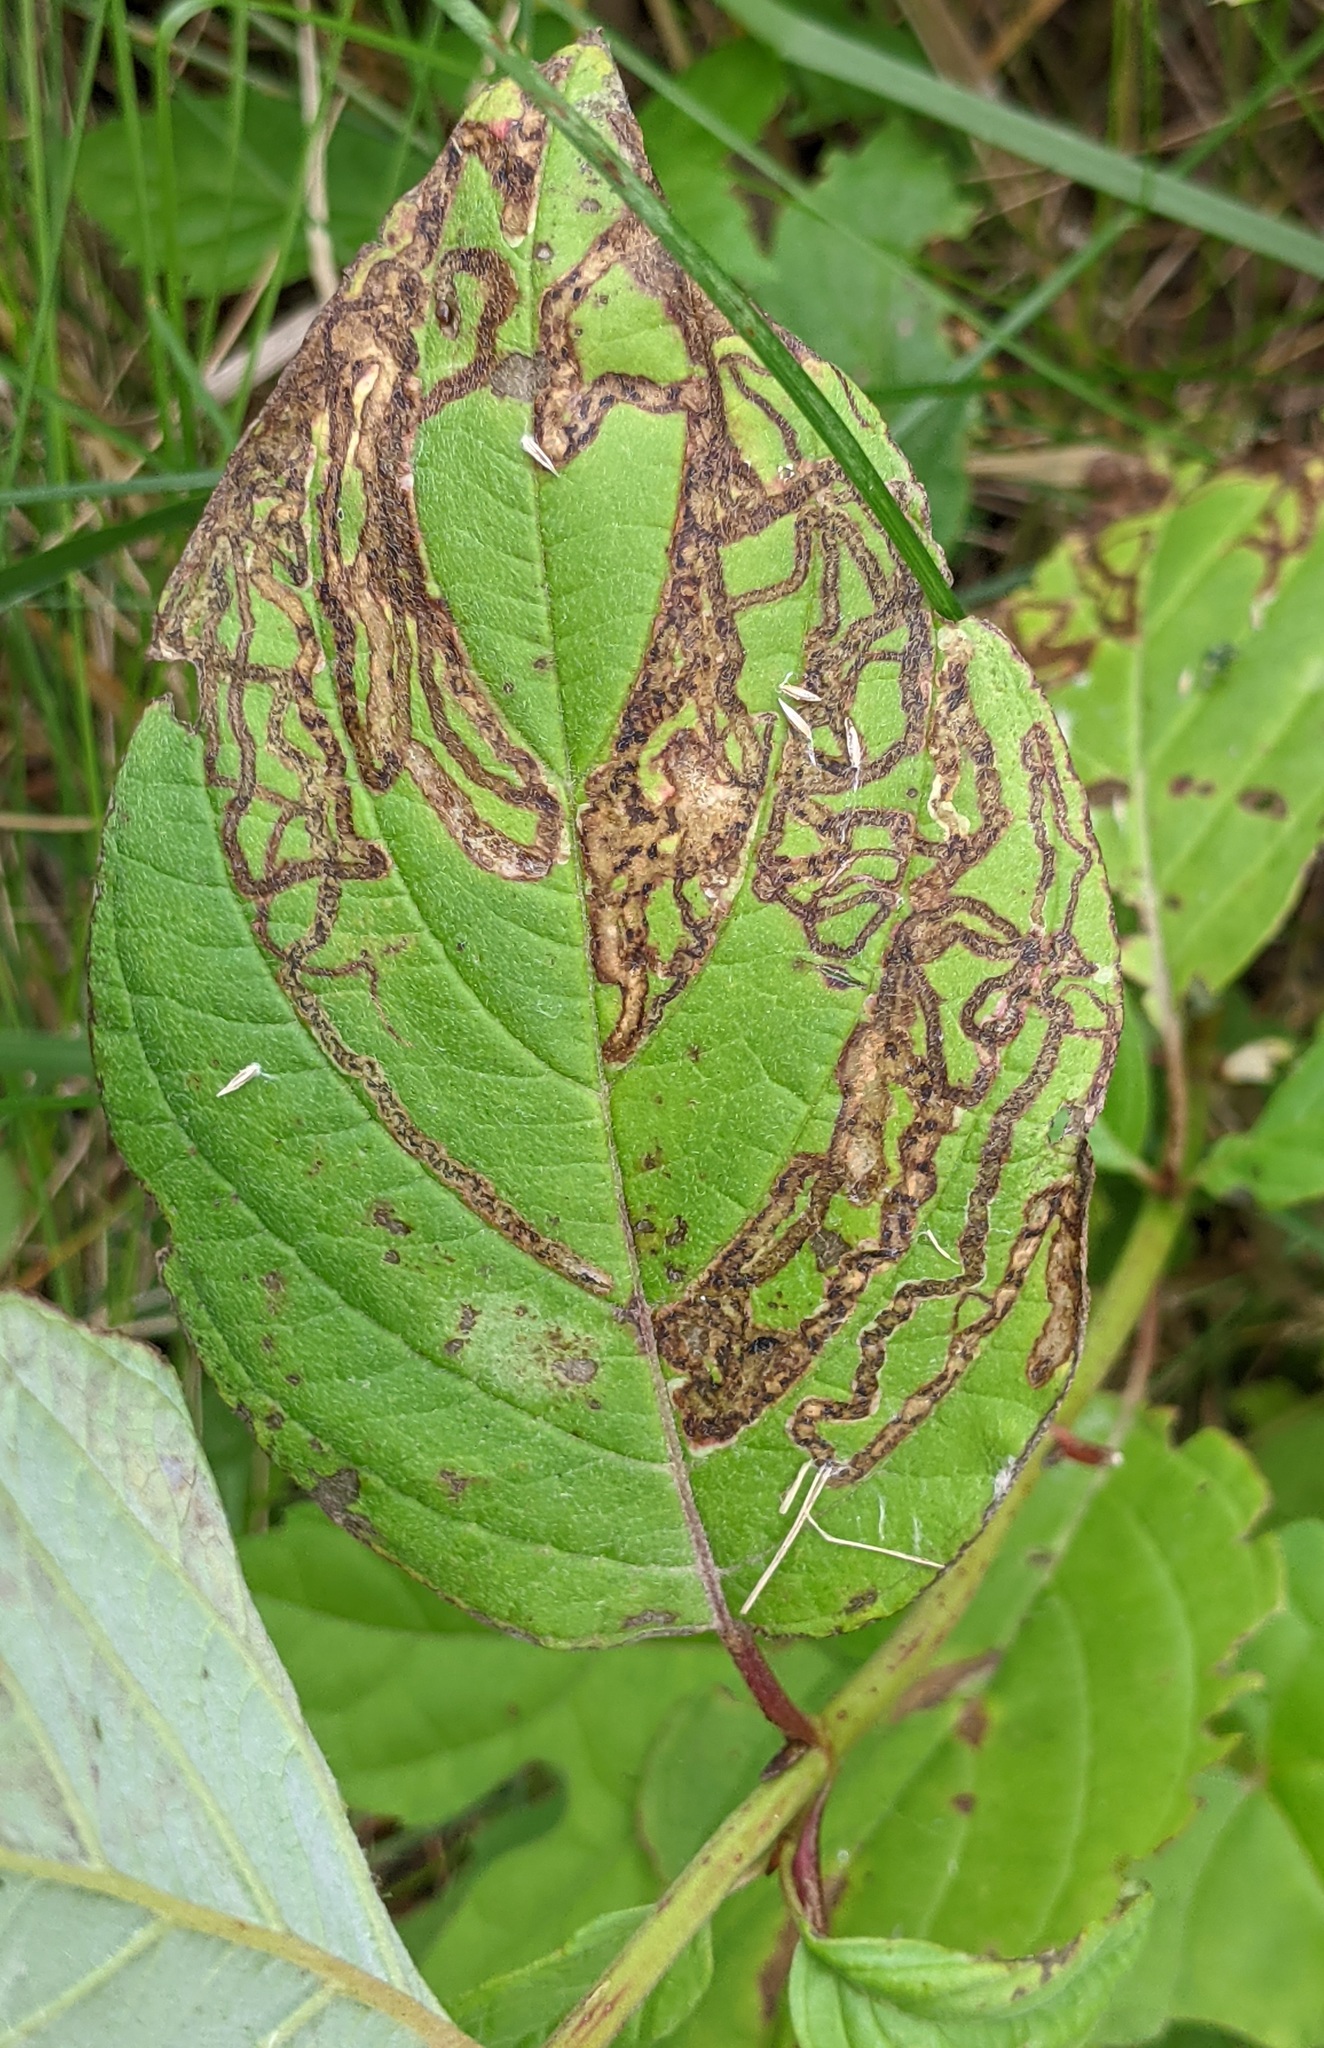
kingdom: Animalia
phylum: Arthropoda
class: Insecta
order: Diptera
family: Agromyzidae
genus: Phytomyza
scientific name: Phytomyza agromyzina
